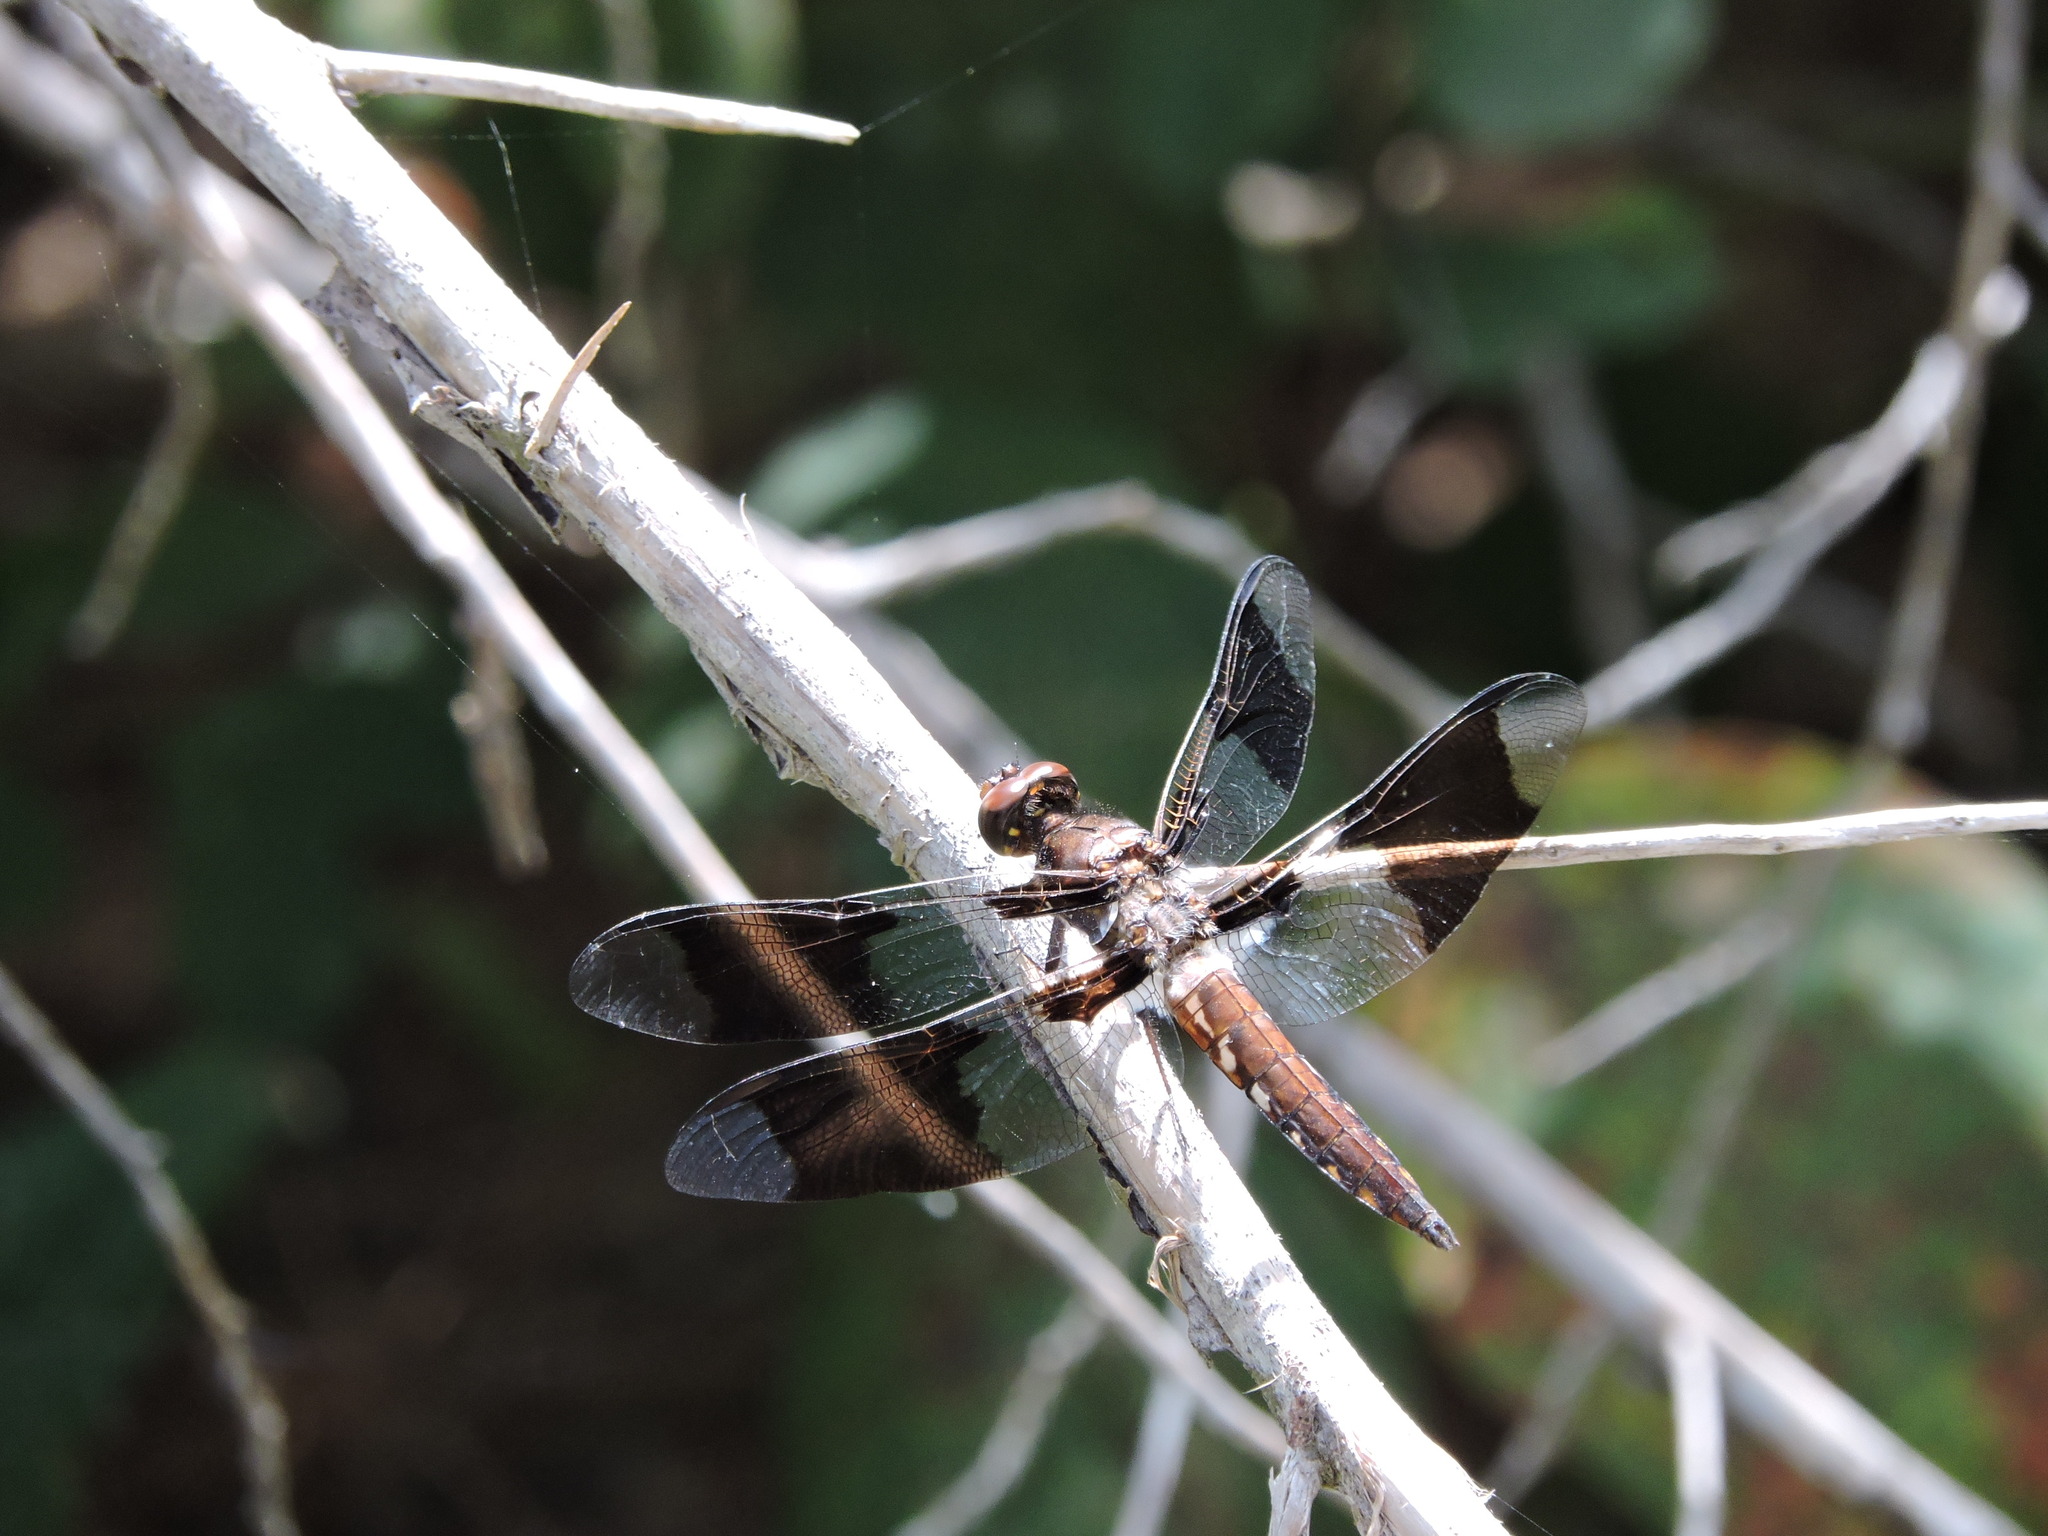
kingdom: Animalia
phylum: Arthropoda
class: Insecta
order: Odonata
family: Libellulidae
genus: Plathemis
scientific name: Plathemis lydia
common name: Common whitetail
